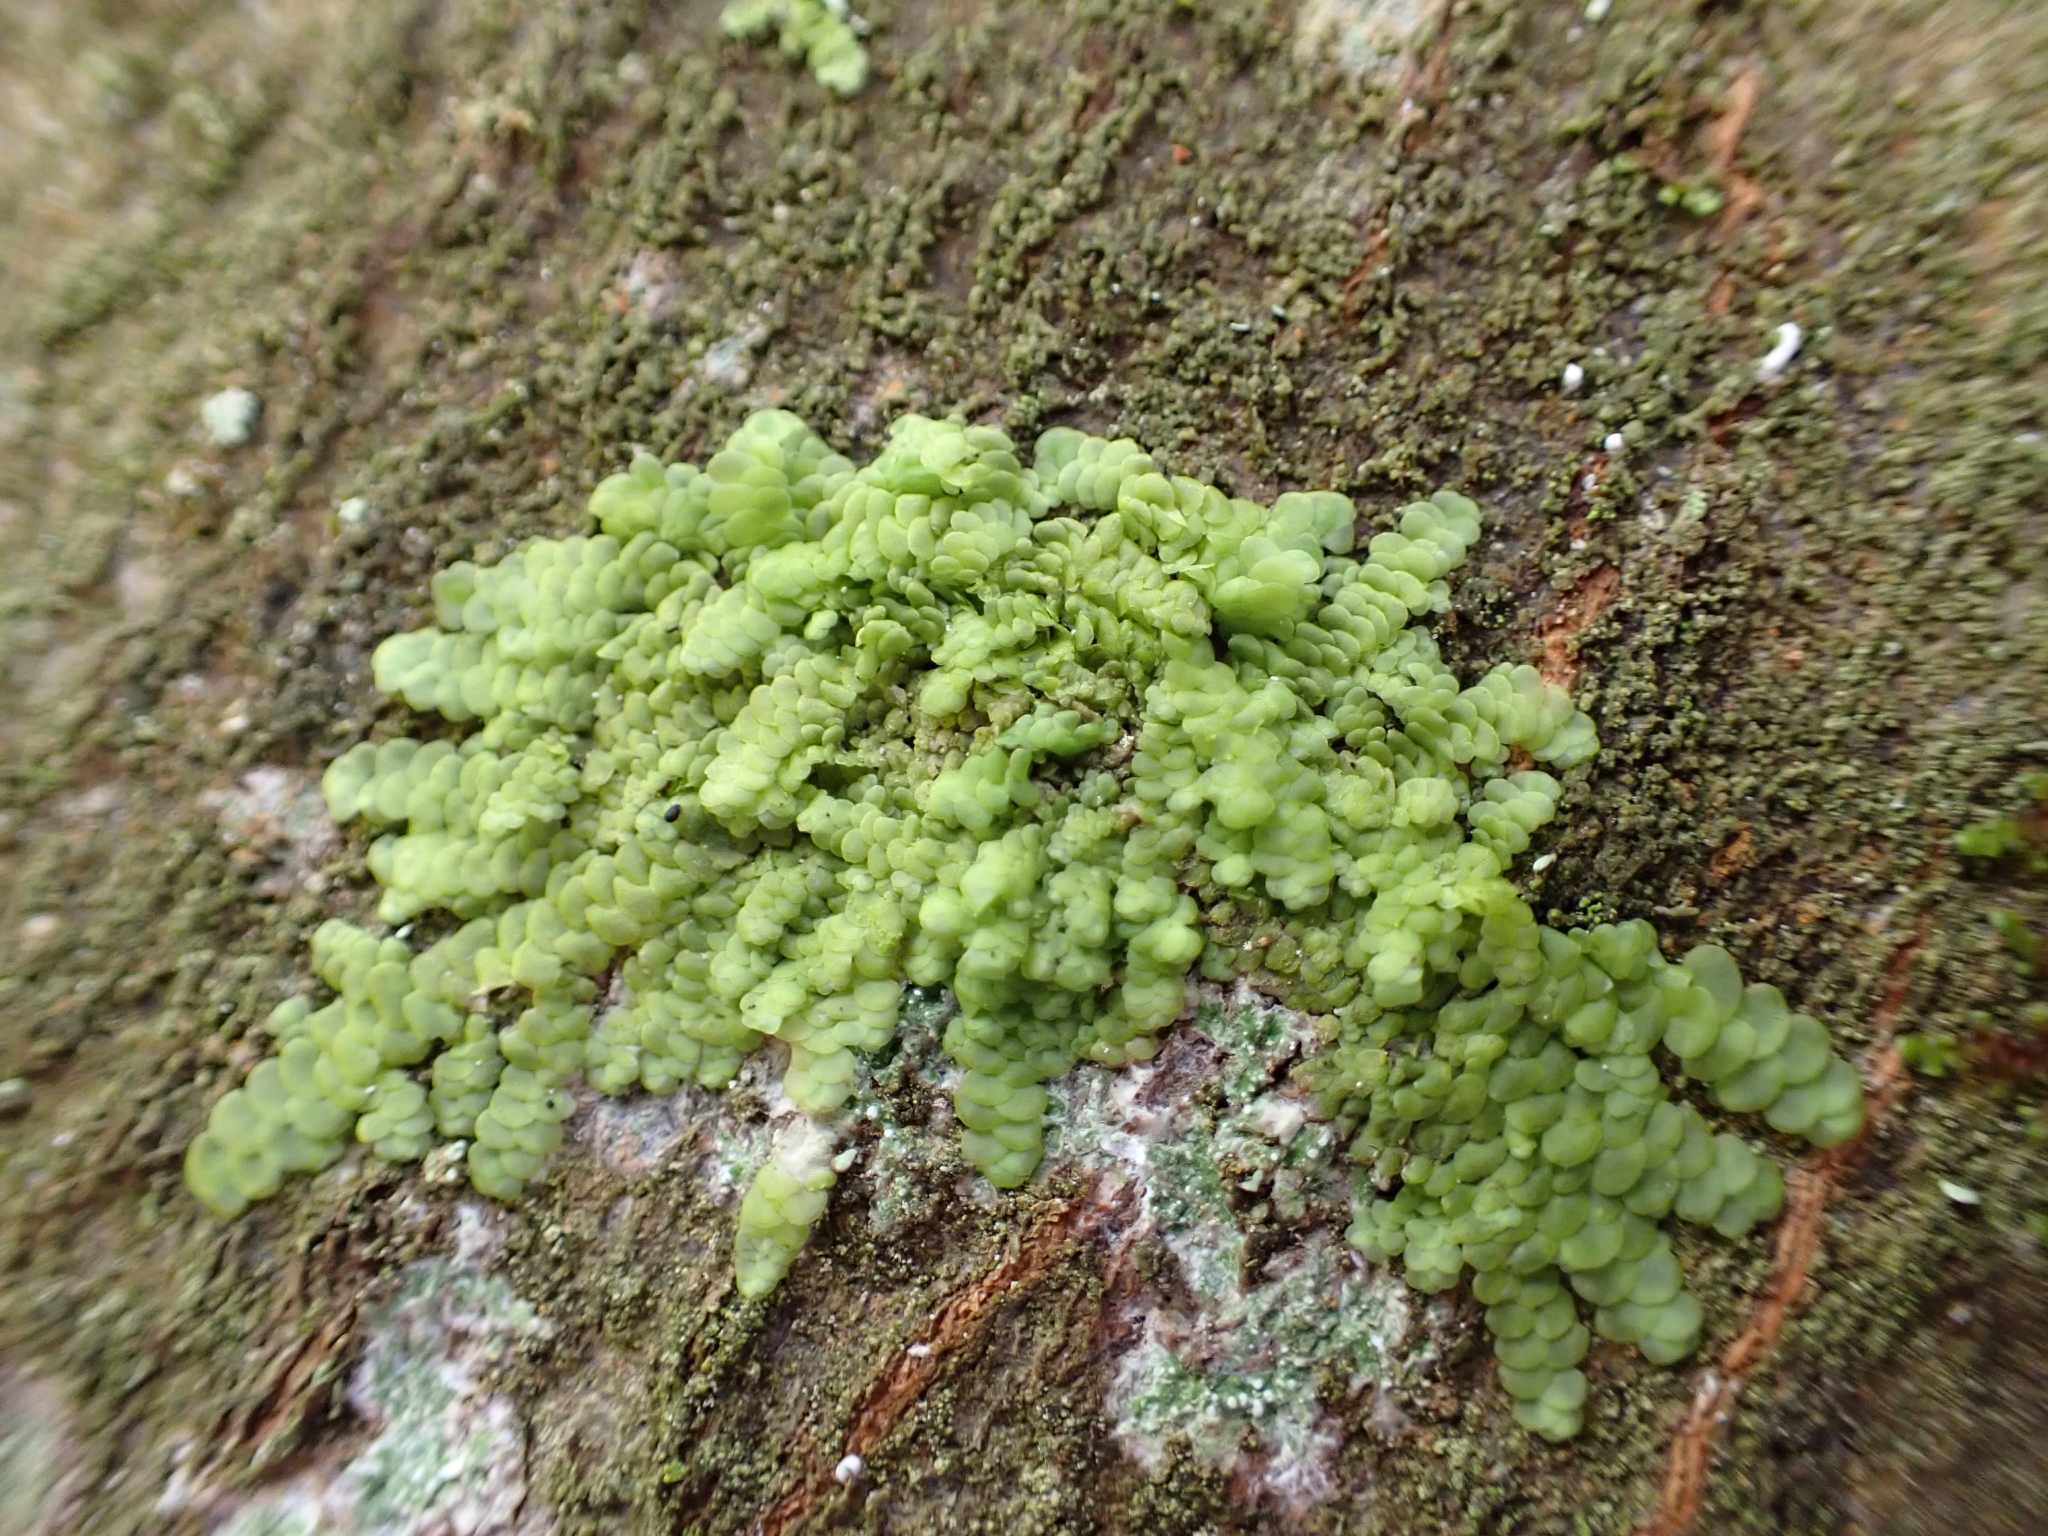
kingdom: Plantae
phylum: Marchantiophyta
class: Jungermanniopsida
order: Porellales
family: Radulaceae
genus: Radula
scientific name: Radula complanata
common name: Flat-leaved scalewort
